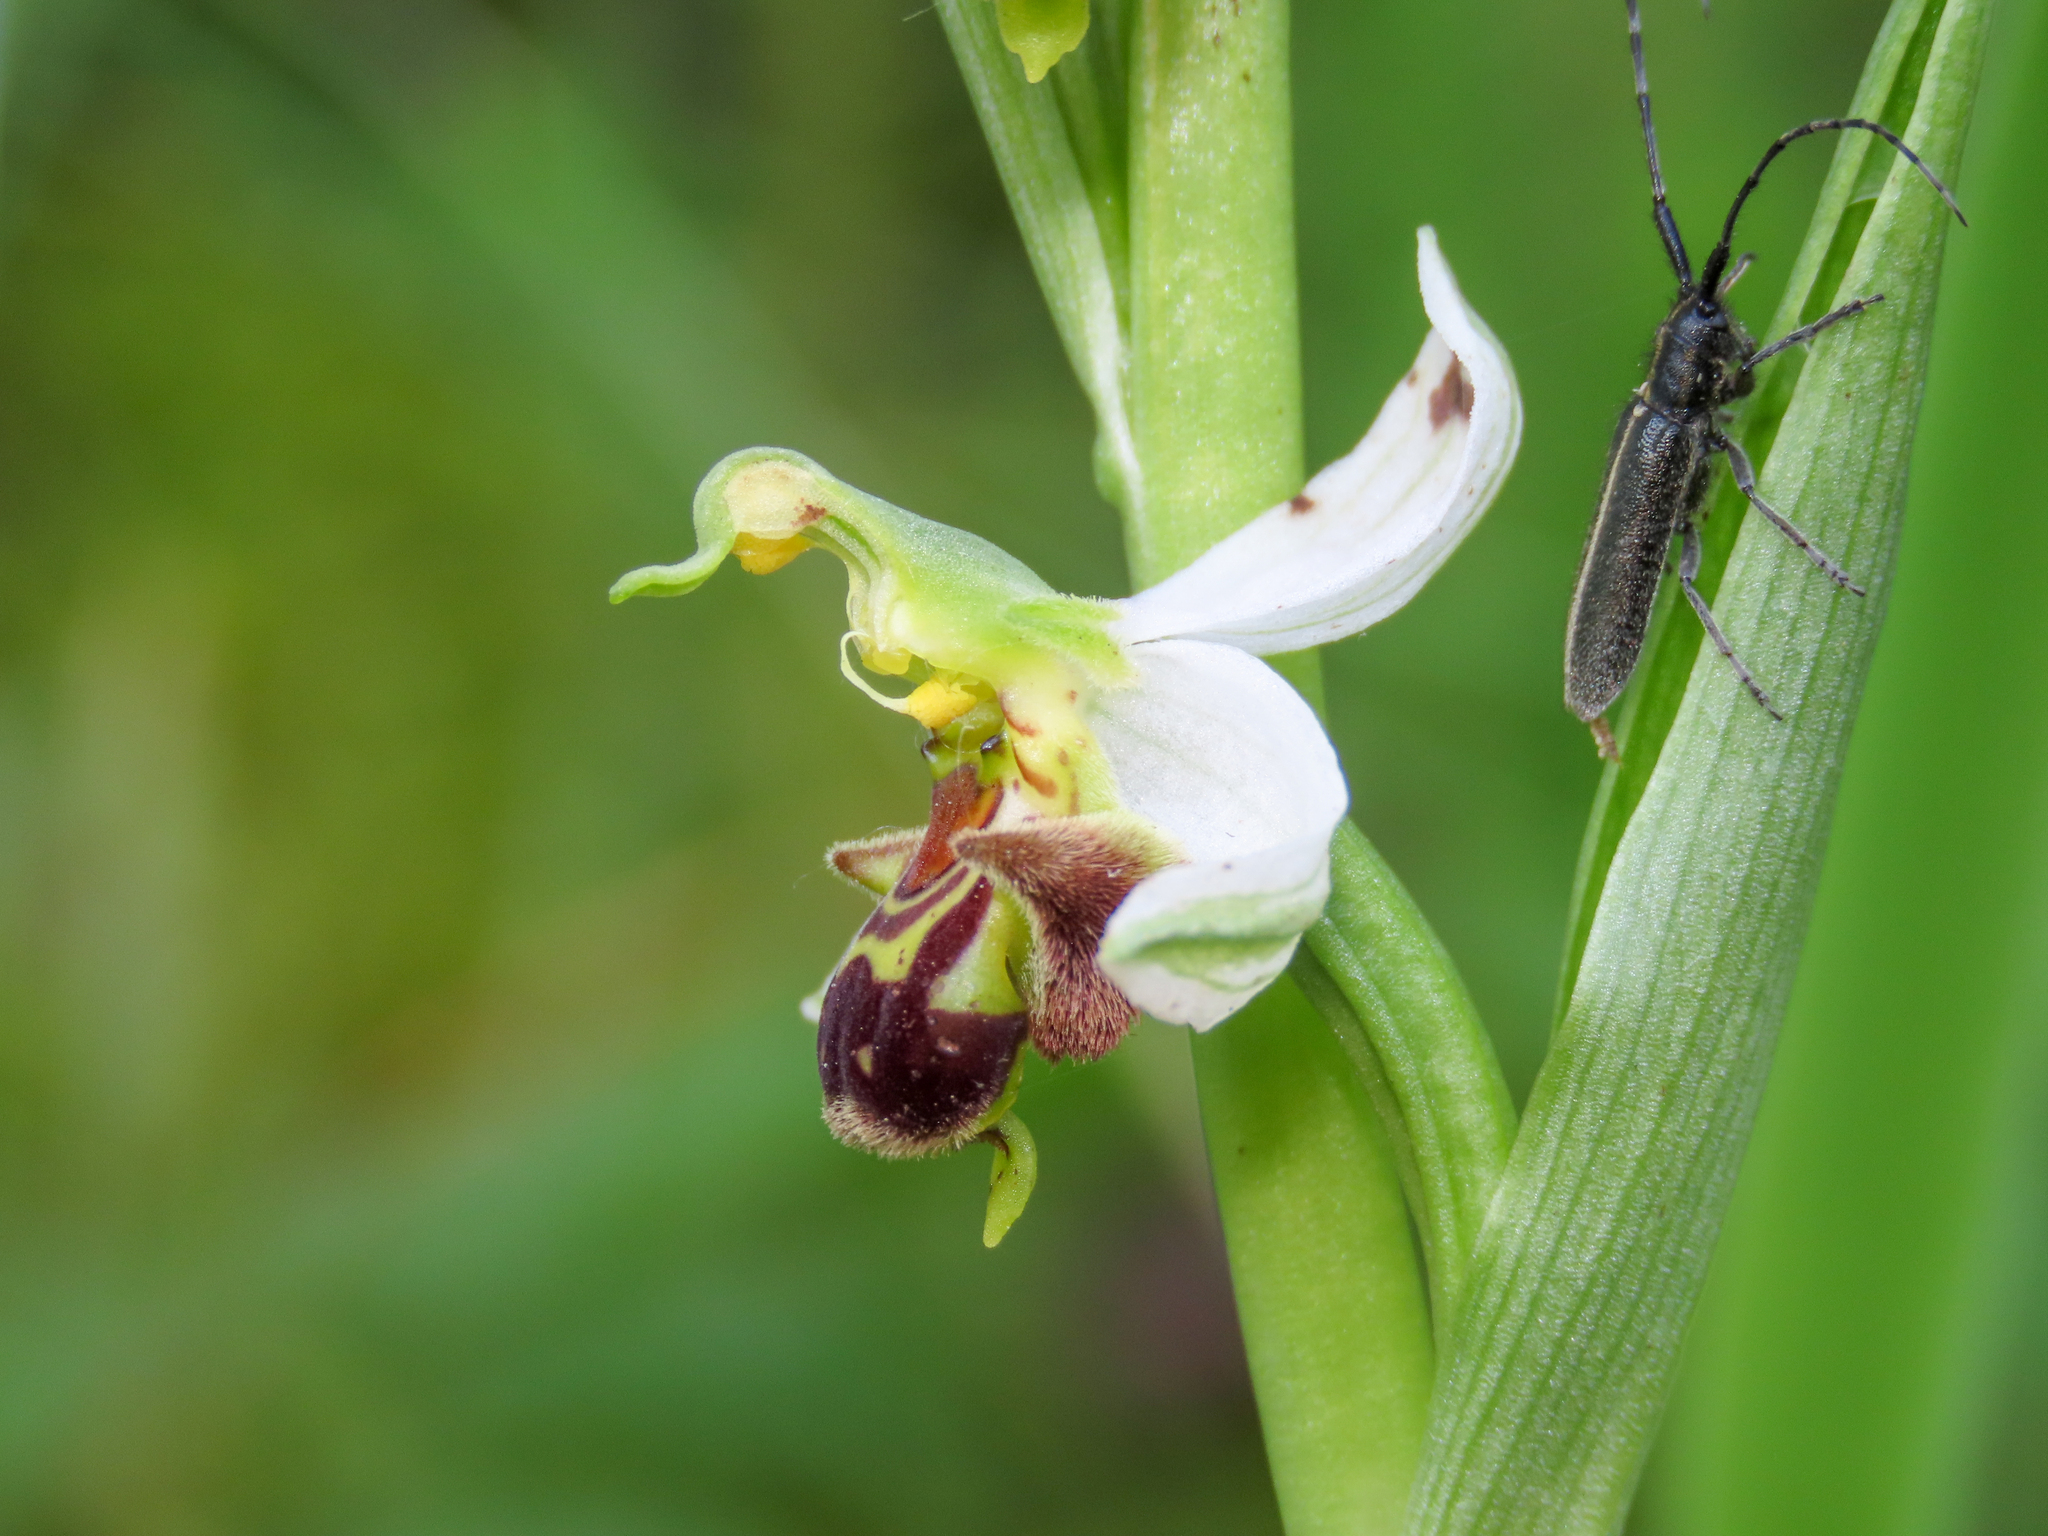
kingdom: Plantae
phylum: Tracheophyta
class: Liliopsida
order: Asparagales
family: Orchidaceae
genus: Ophrys
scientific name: Ophrys apifera
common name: Bee orchid
